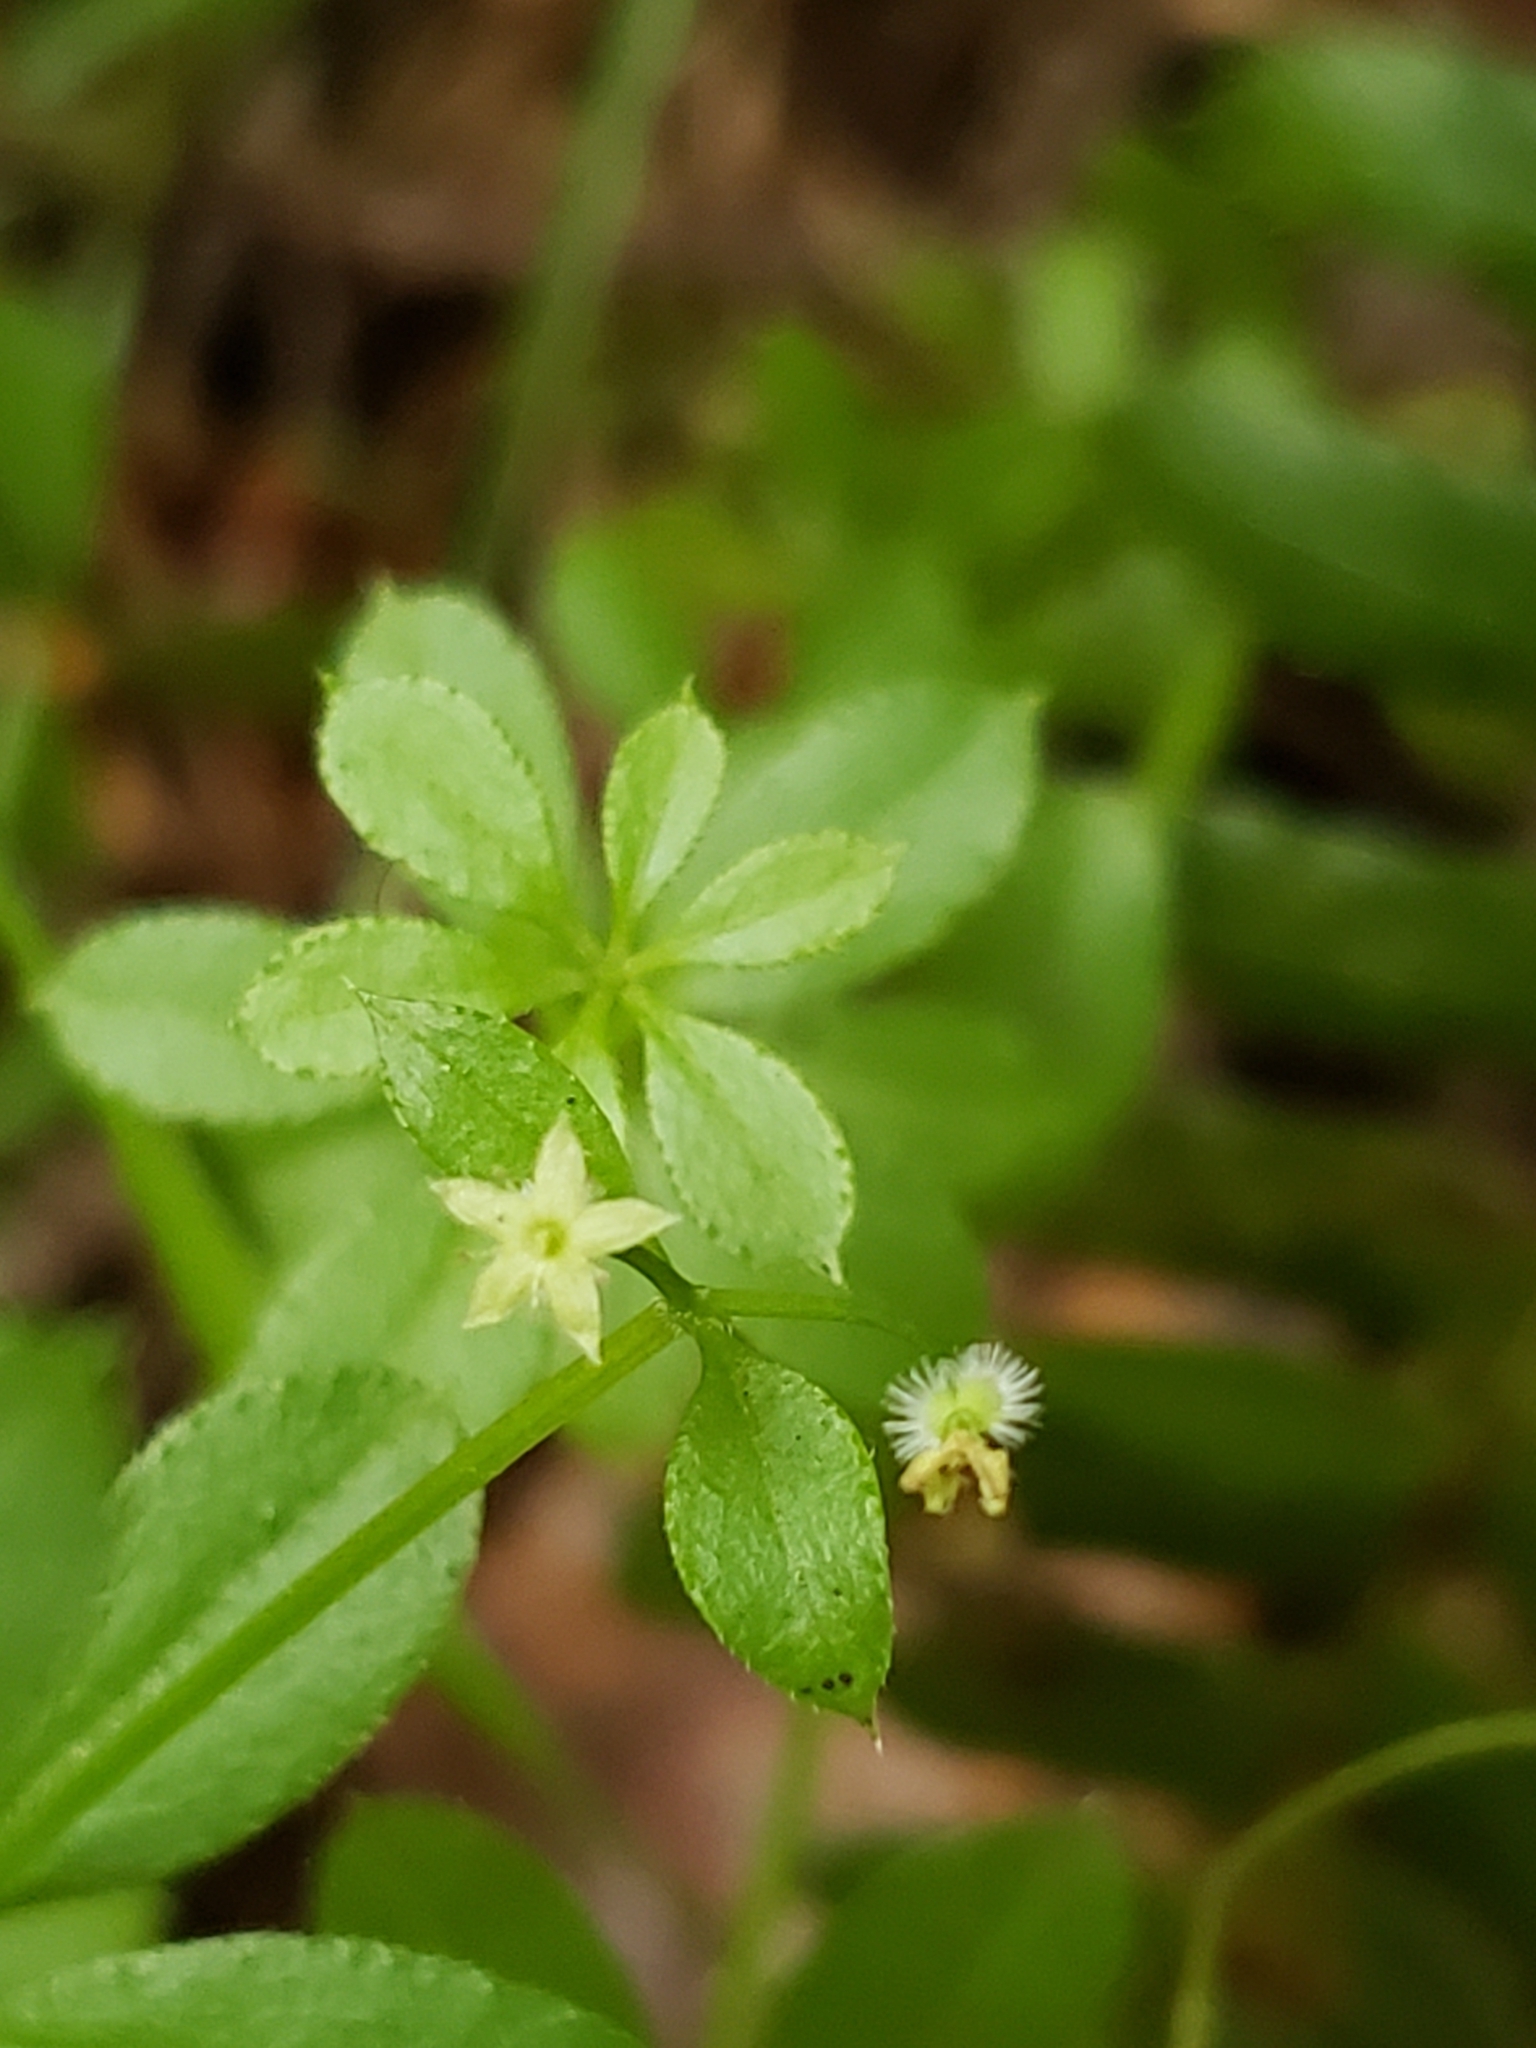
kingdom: Plantae
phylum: Tracheophyta
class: Magnoliopsida
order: Gentianales
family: Rubiaceae
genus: Galium
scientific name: Galium triflorum
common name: Fragrant bedstraw
